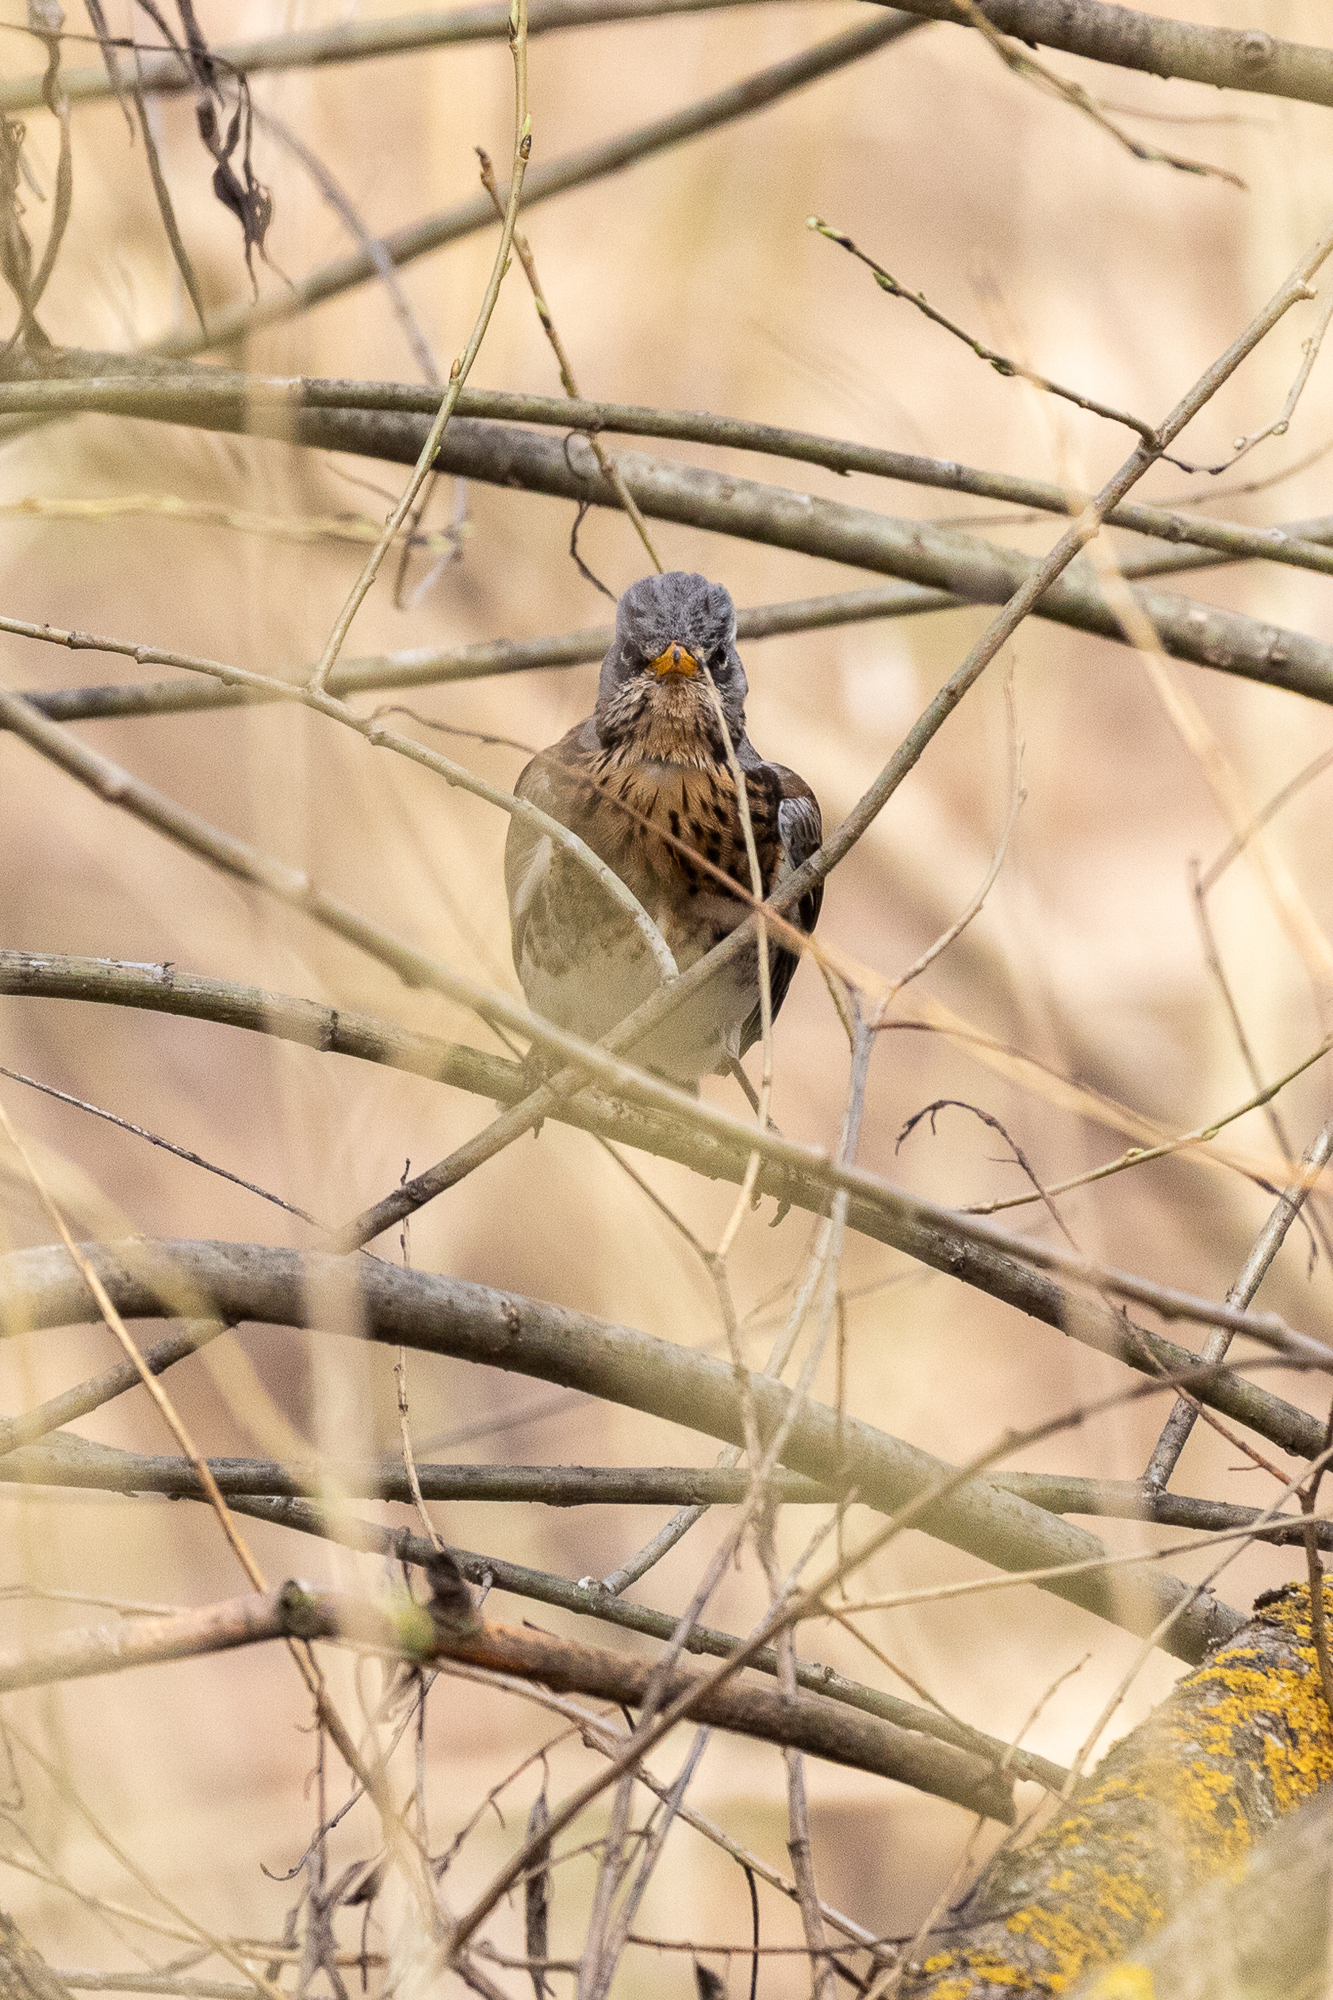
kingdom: Animalia
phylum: Chordata
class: Aves
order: Passeriformes
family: Turdidae
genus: Turdus
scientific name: Turdus pilaris
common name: Fieldfare
